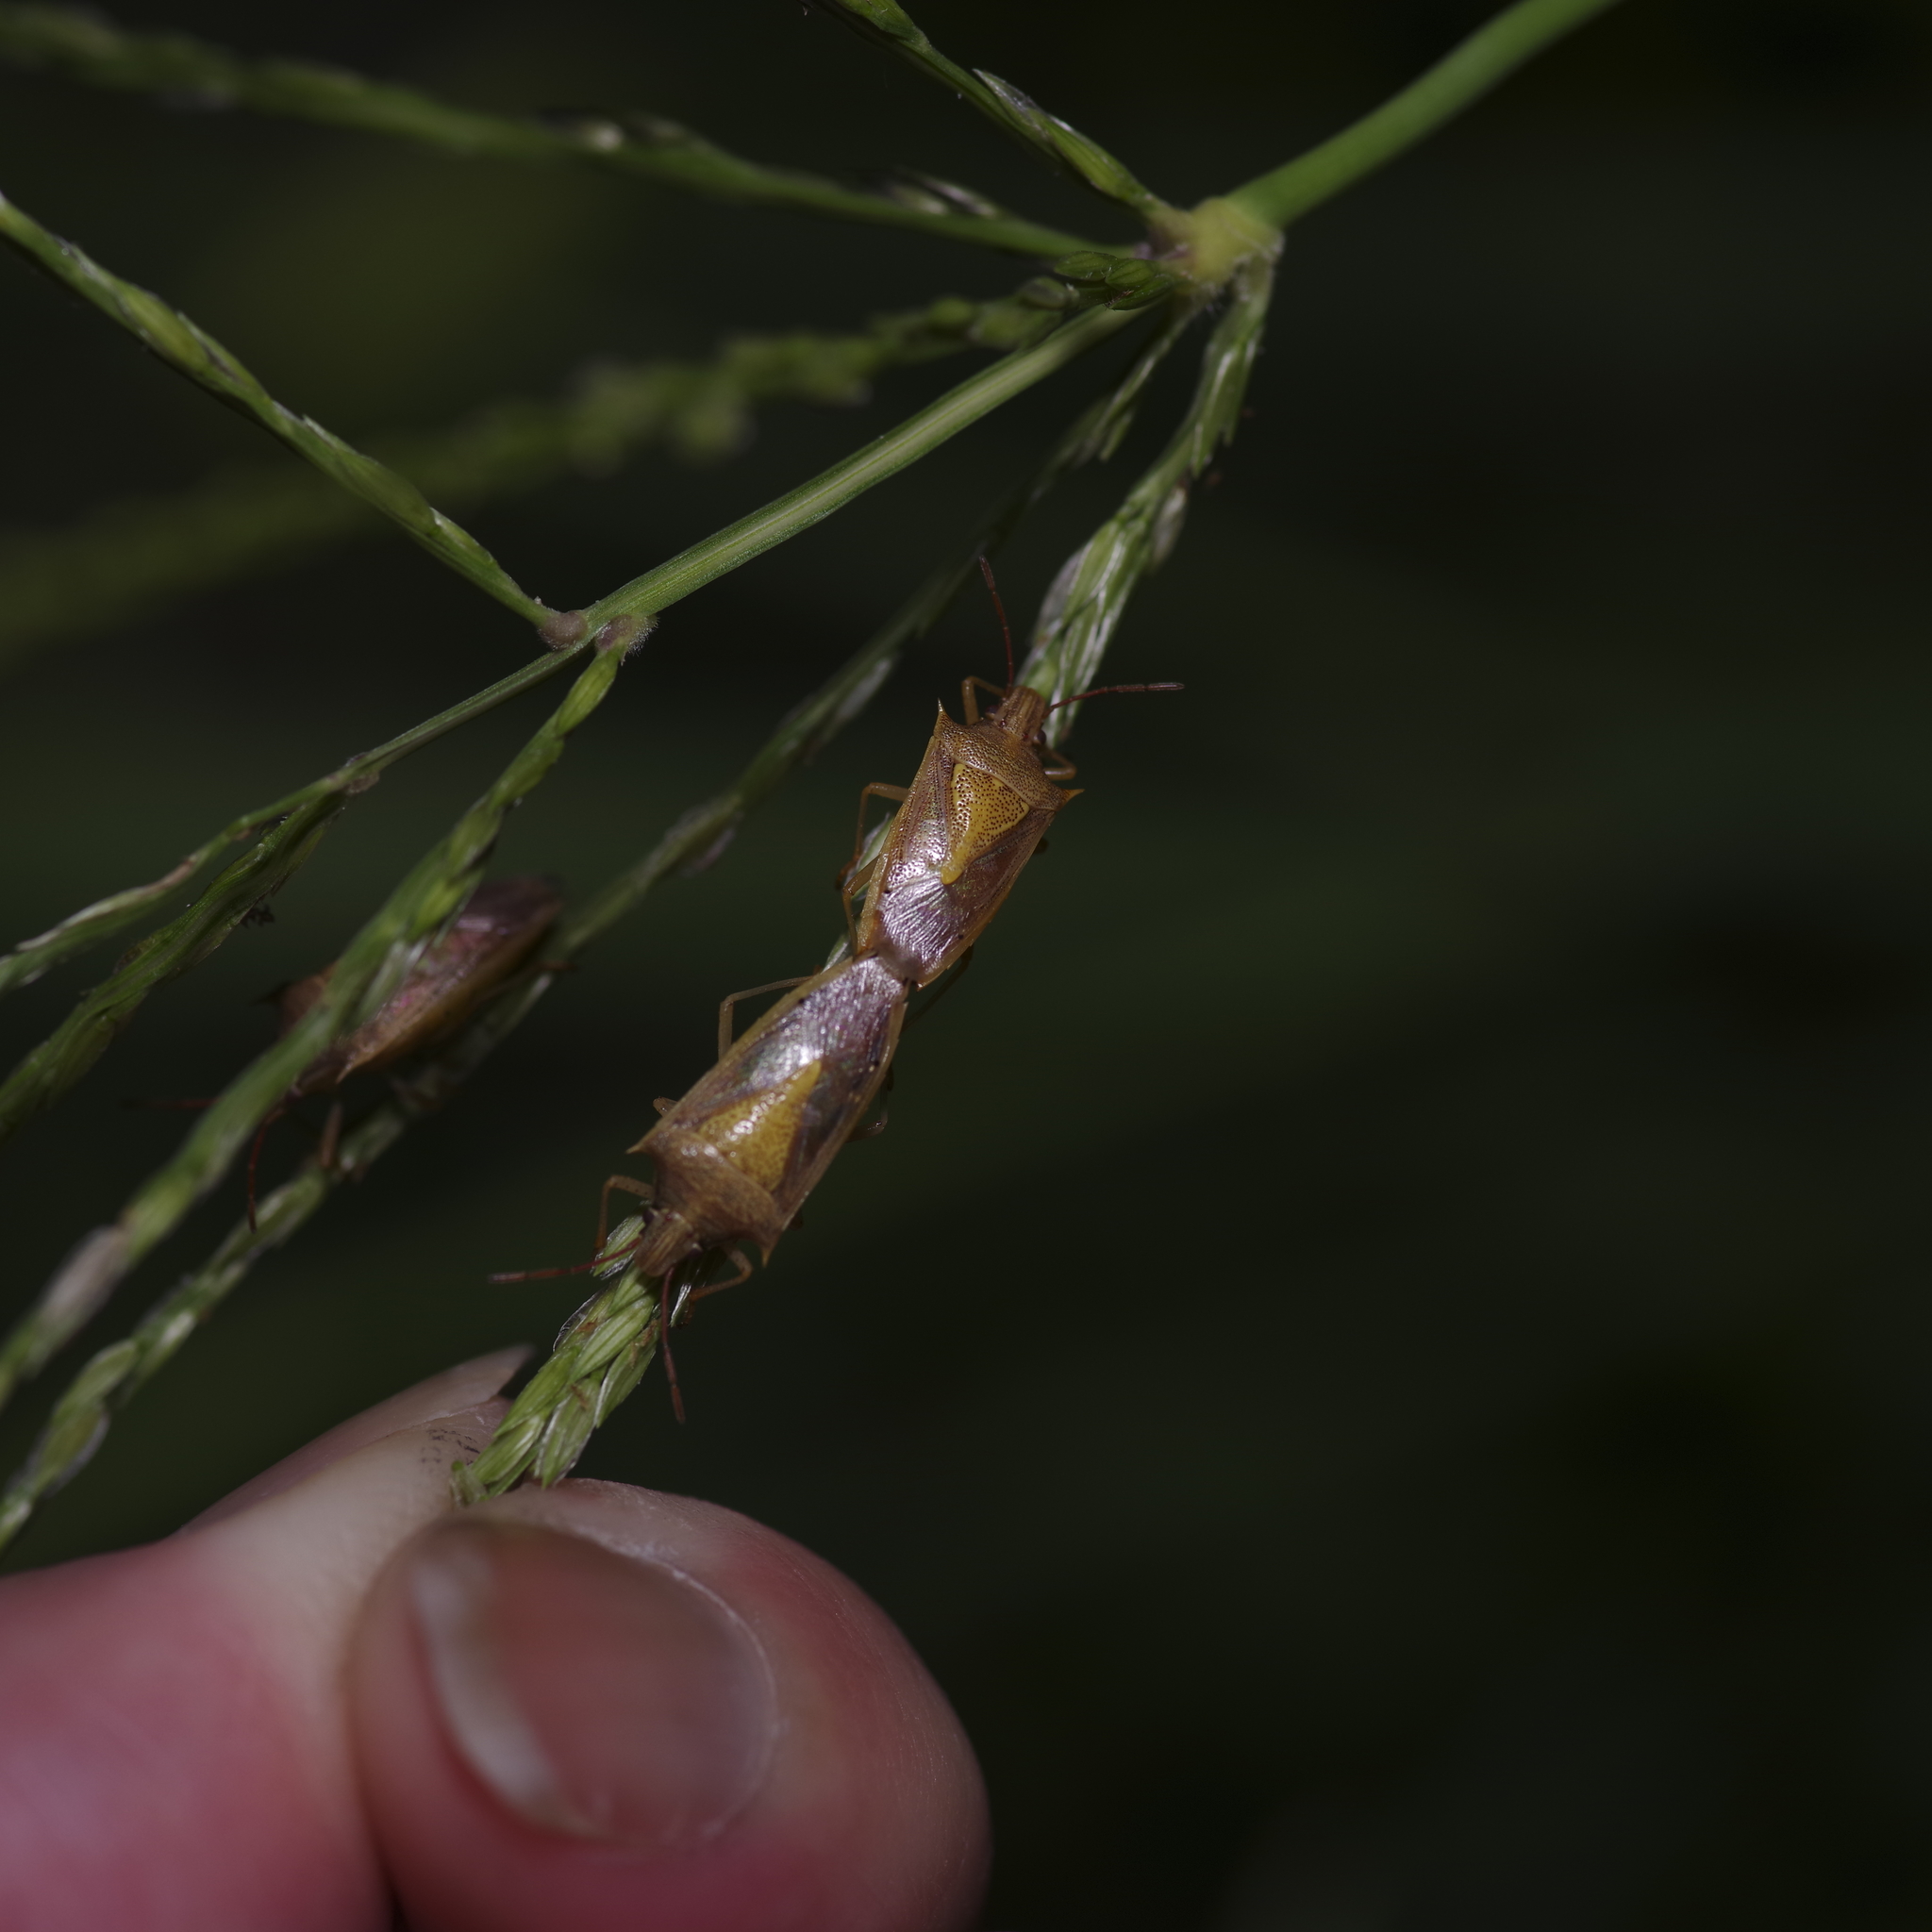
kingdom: Animalia
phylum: Arthropoda
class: Insecta
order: Hemiptera
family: Pentatomidae
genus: Oebalus
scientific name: Oebalus pugnax
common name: Rice stink bug
